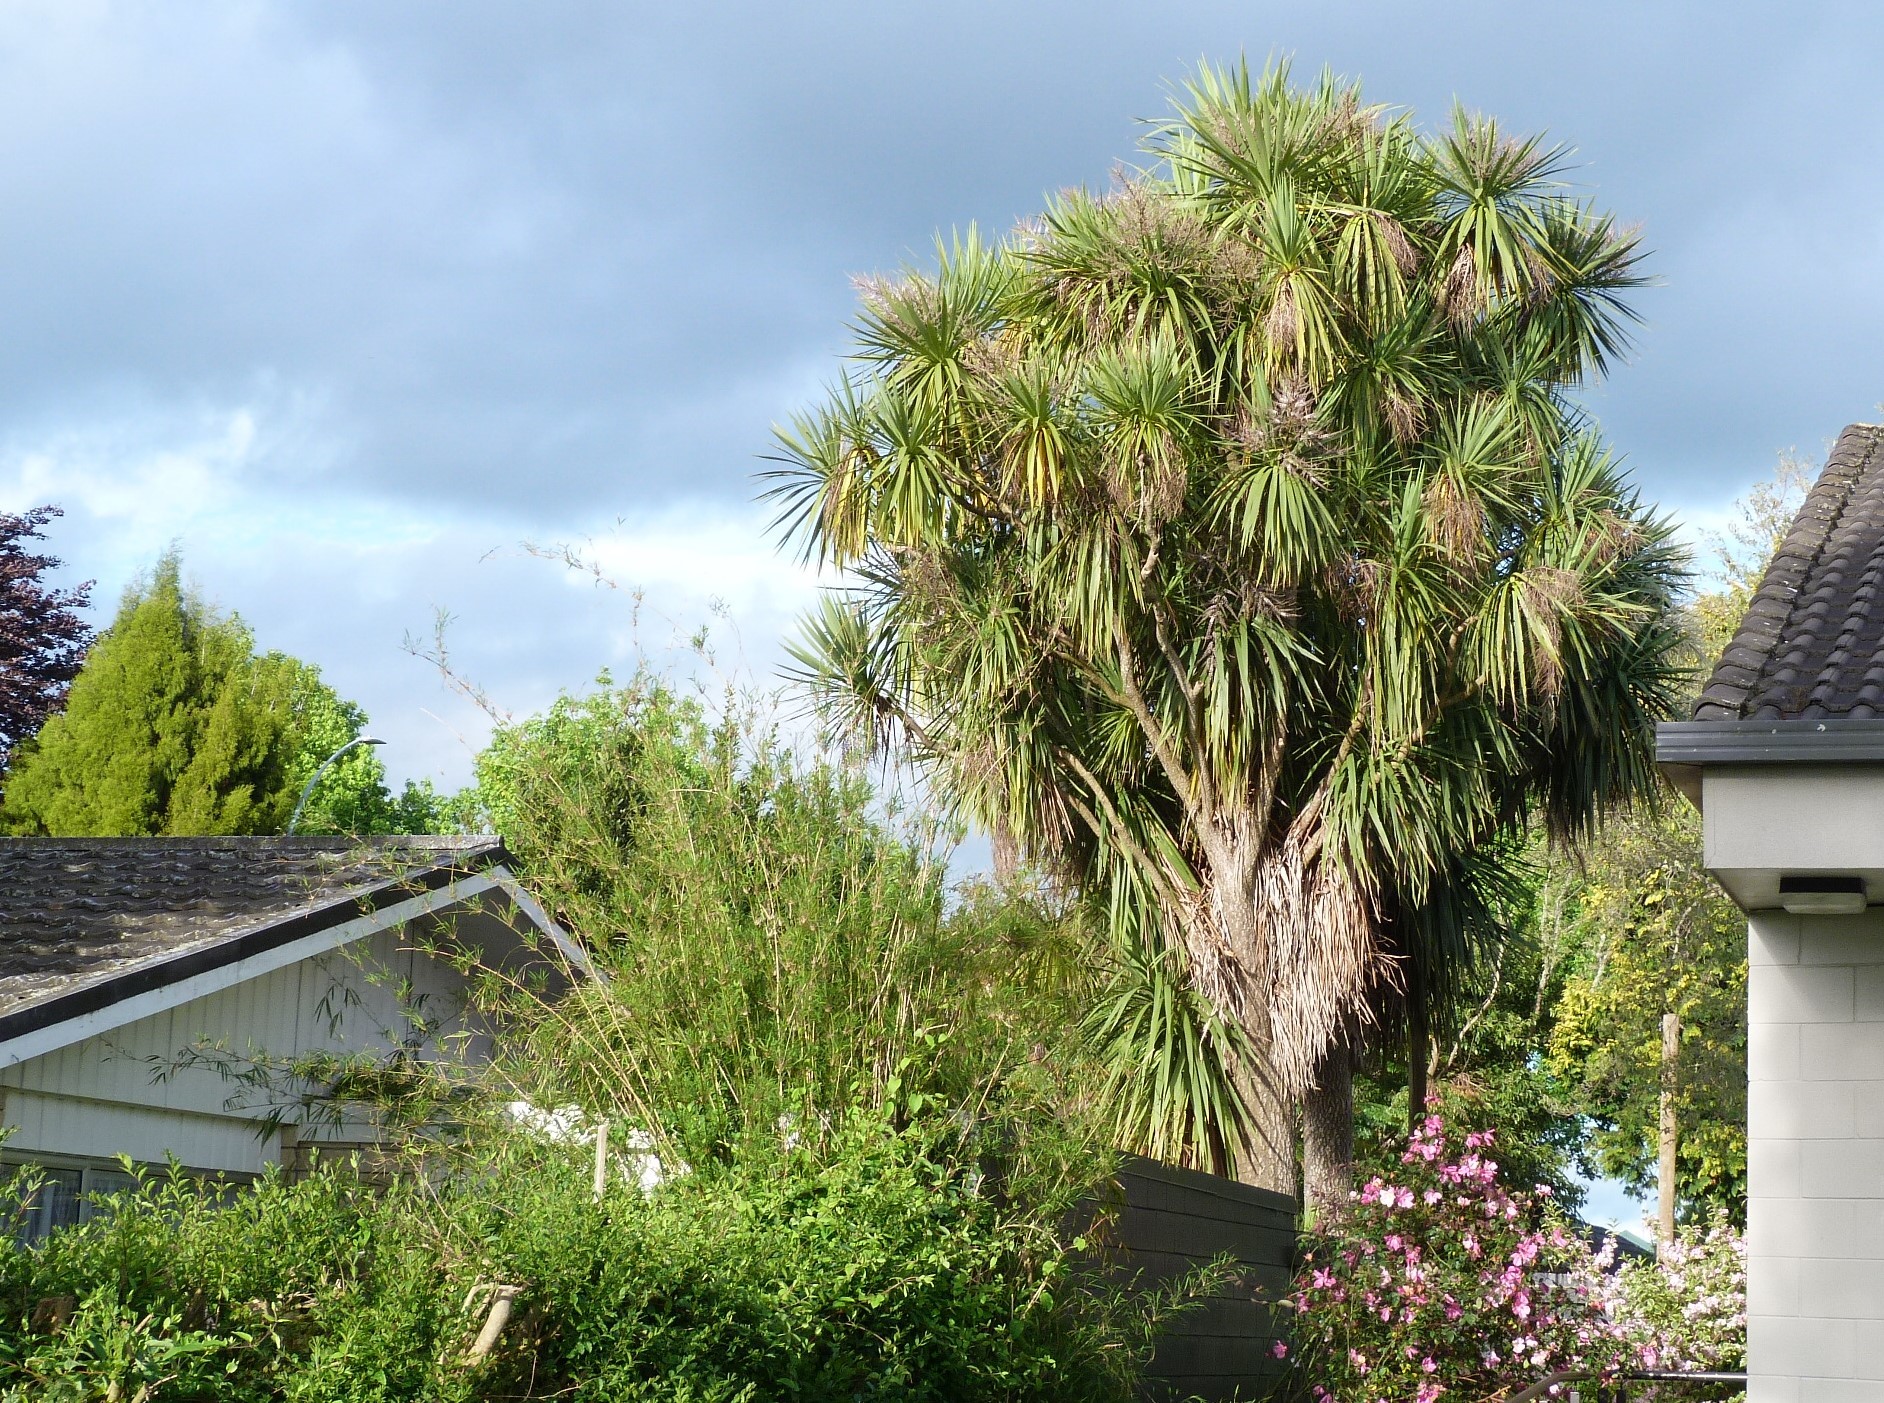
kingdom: Plantae
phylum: Tracheophyta
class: Liliopsida
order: Asparagales
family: Asparagaceae
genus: Cordyline
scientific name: Cordyline australis
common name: Cabbage-palm
